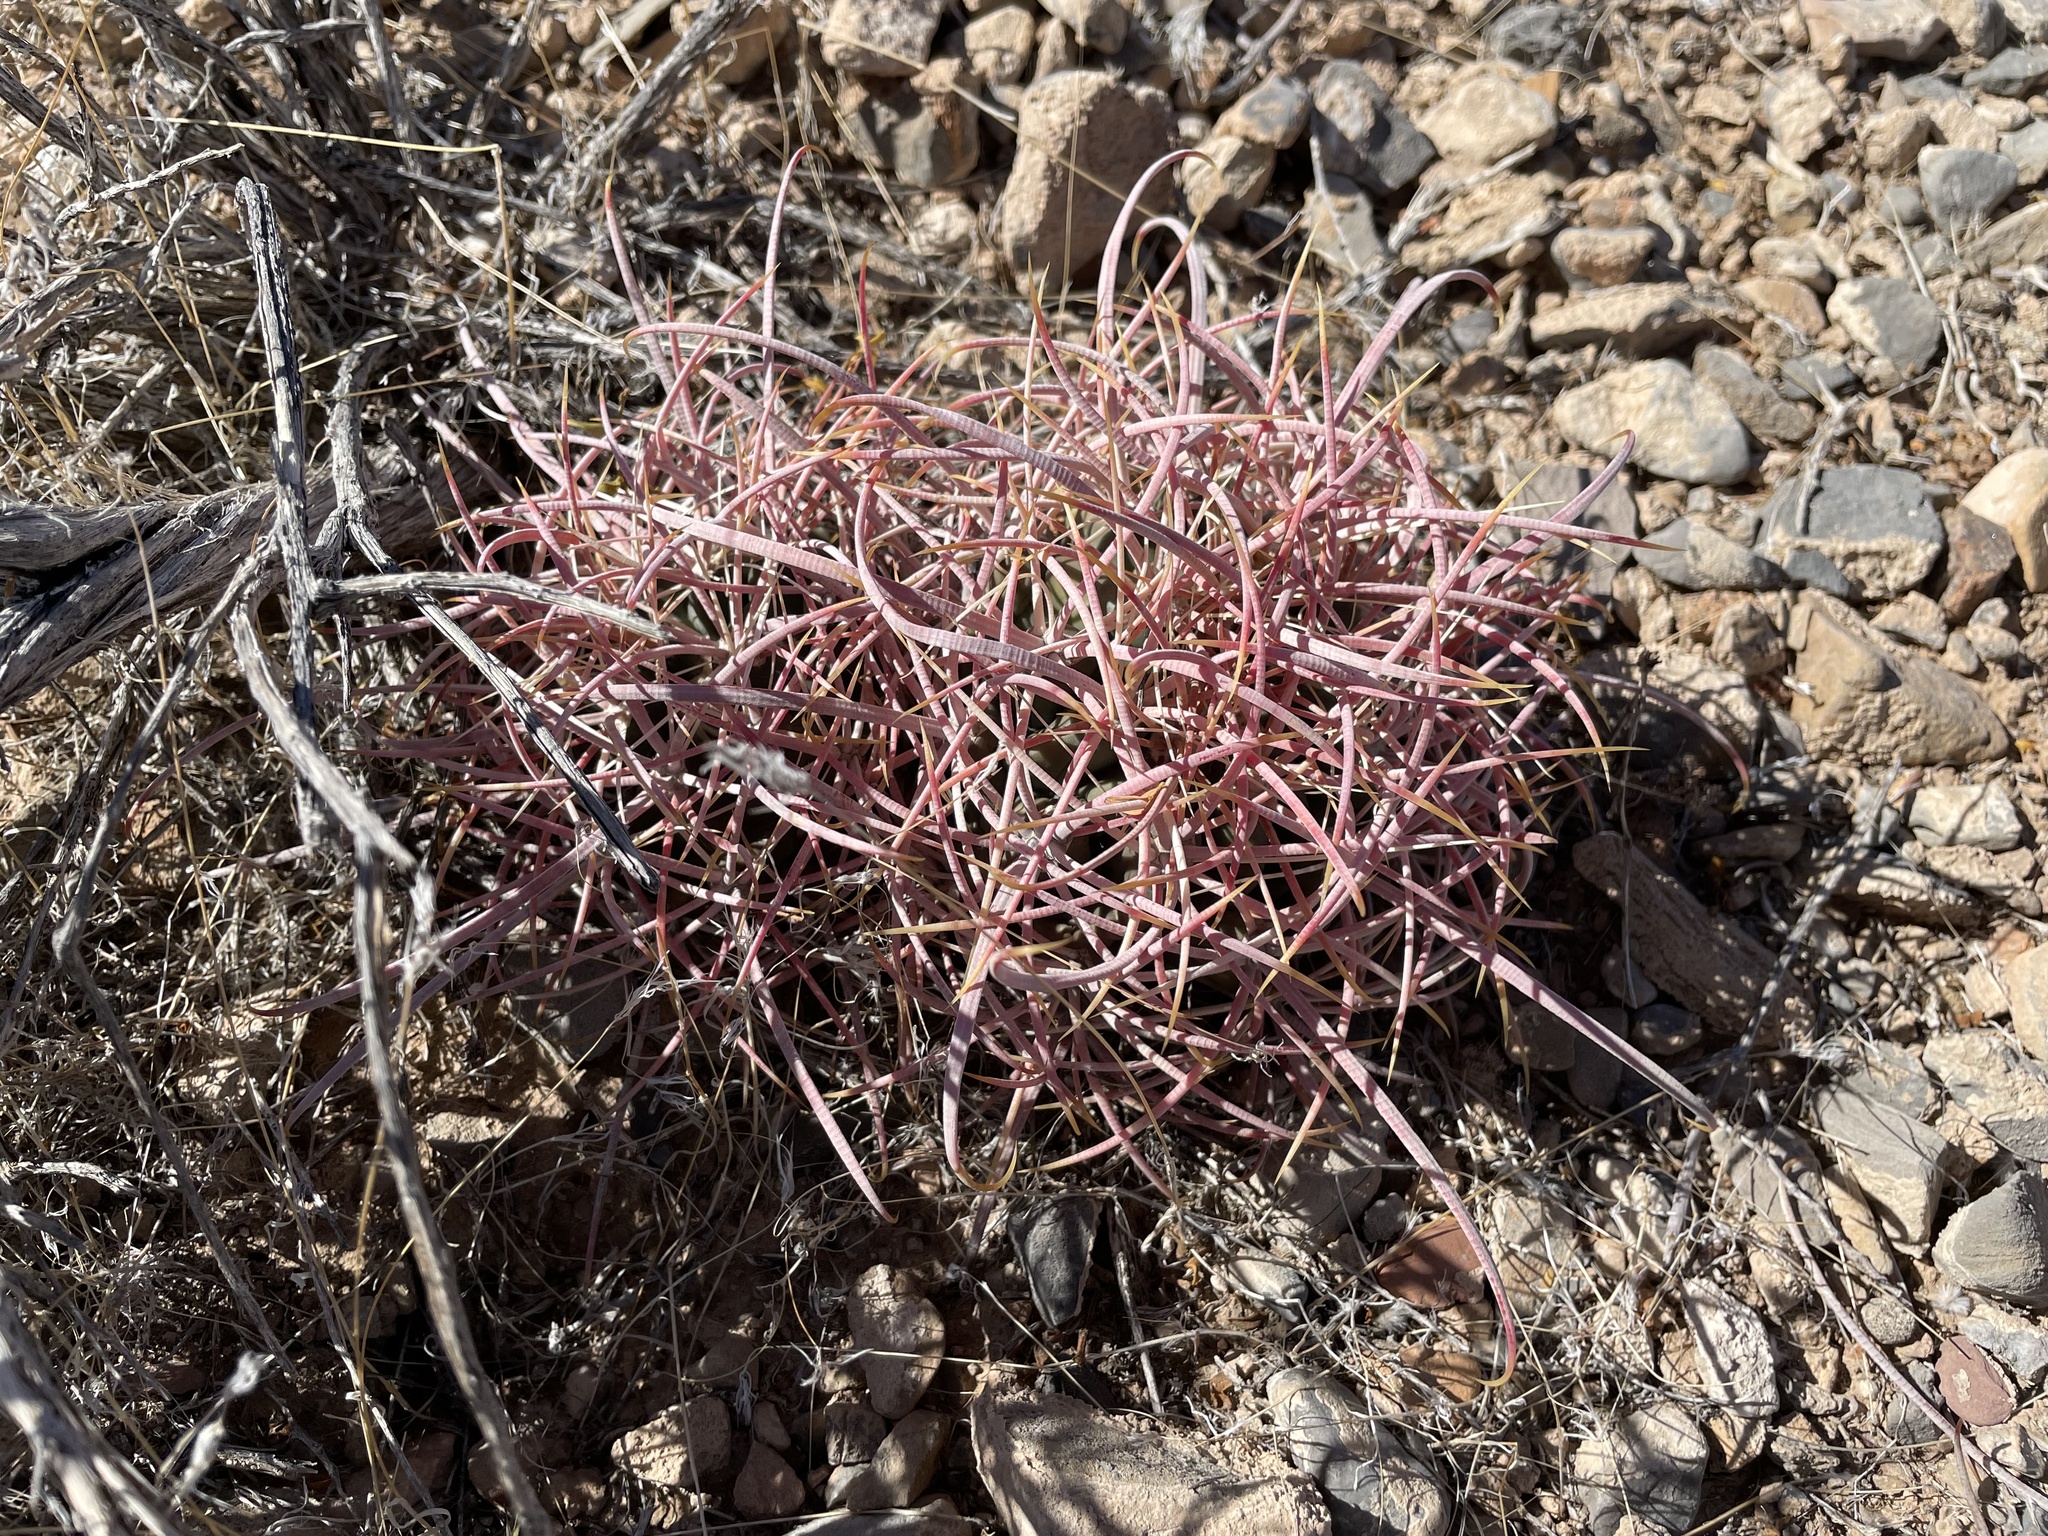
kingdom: Plantae
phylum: Tracheophyta
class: Magnoliopsida
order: Caryophyllales
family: Cactaceae
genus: Ferocactus
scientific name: Ferocactus cylindraceus
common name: California barrel cactus
